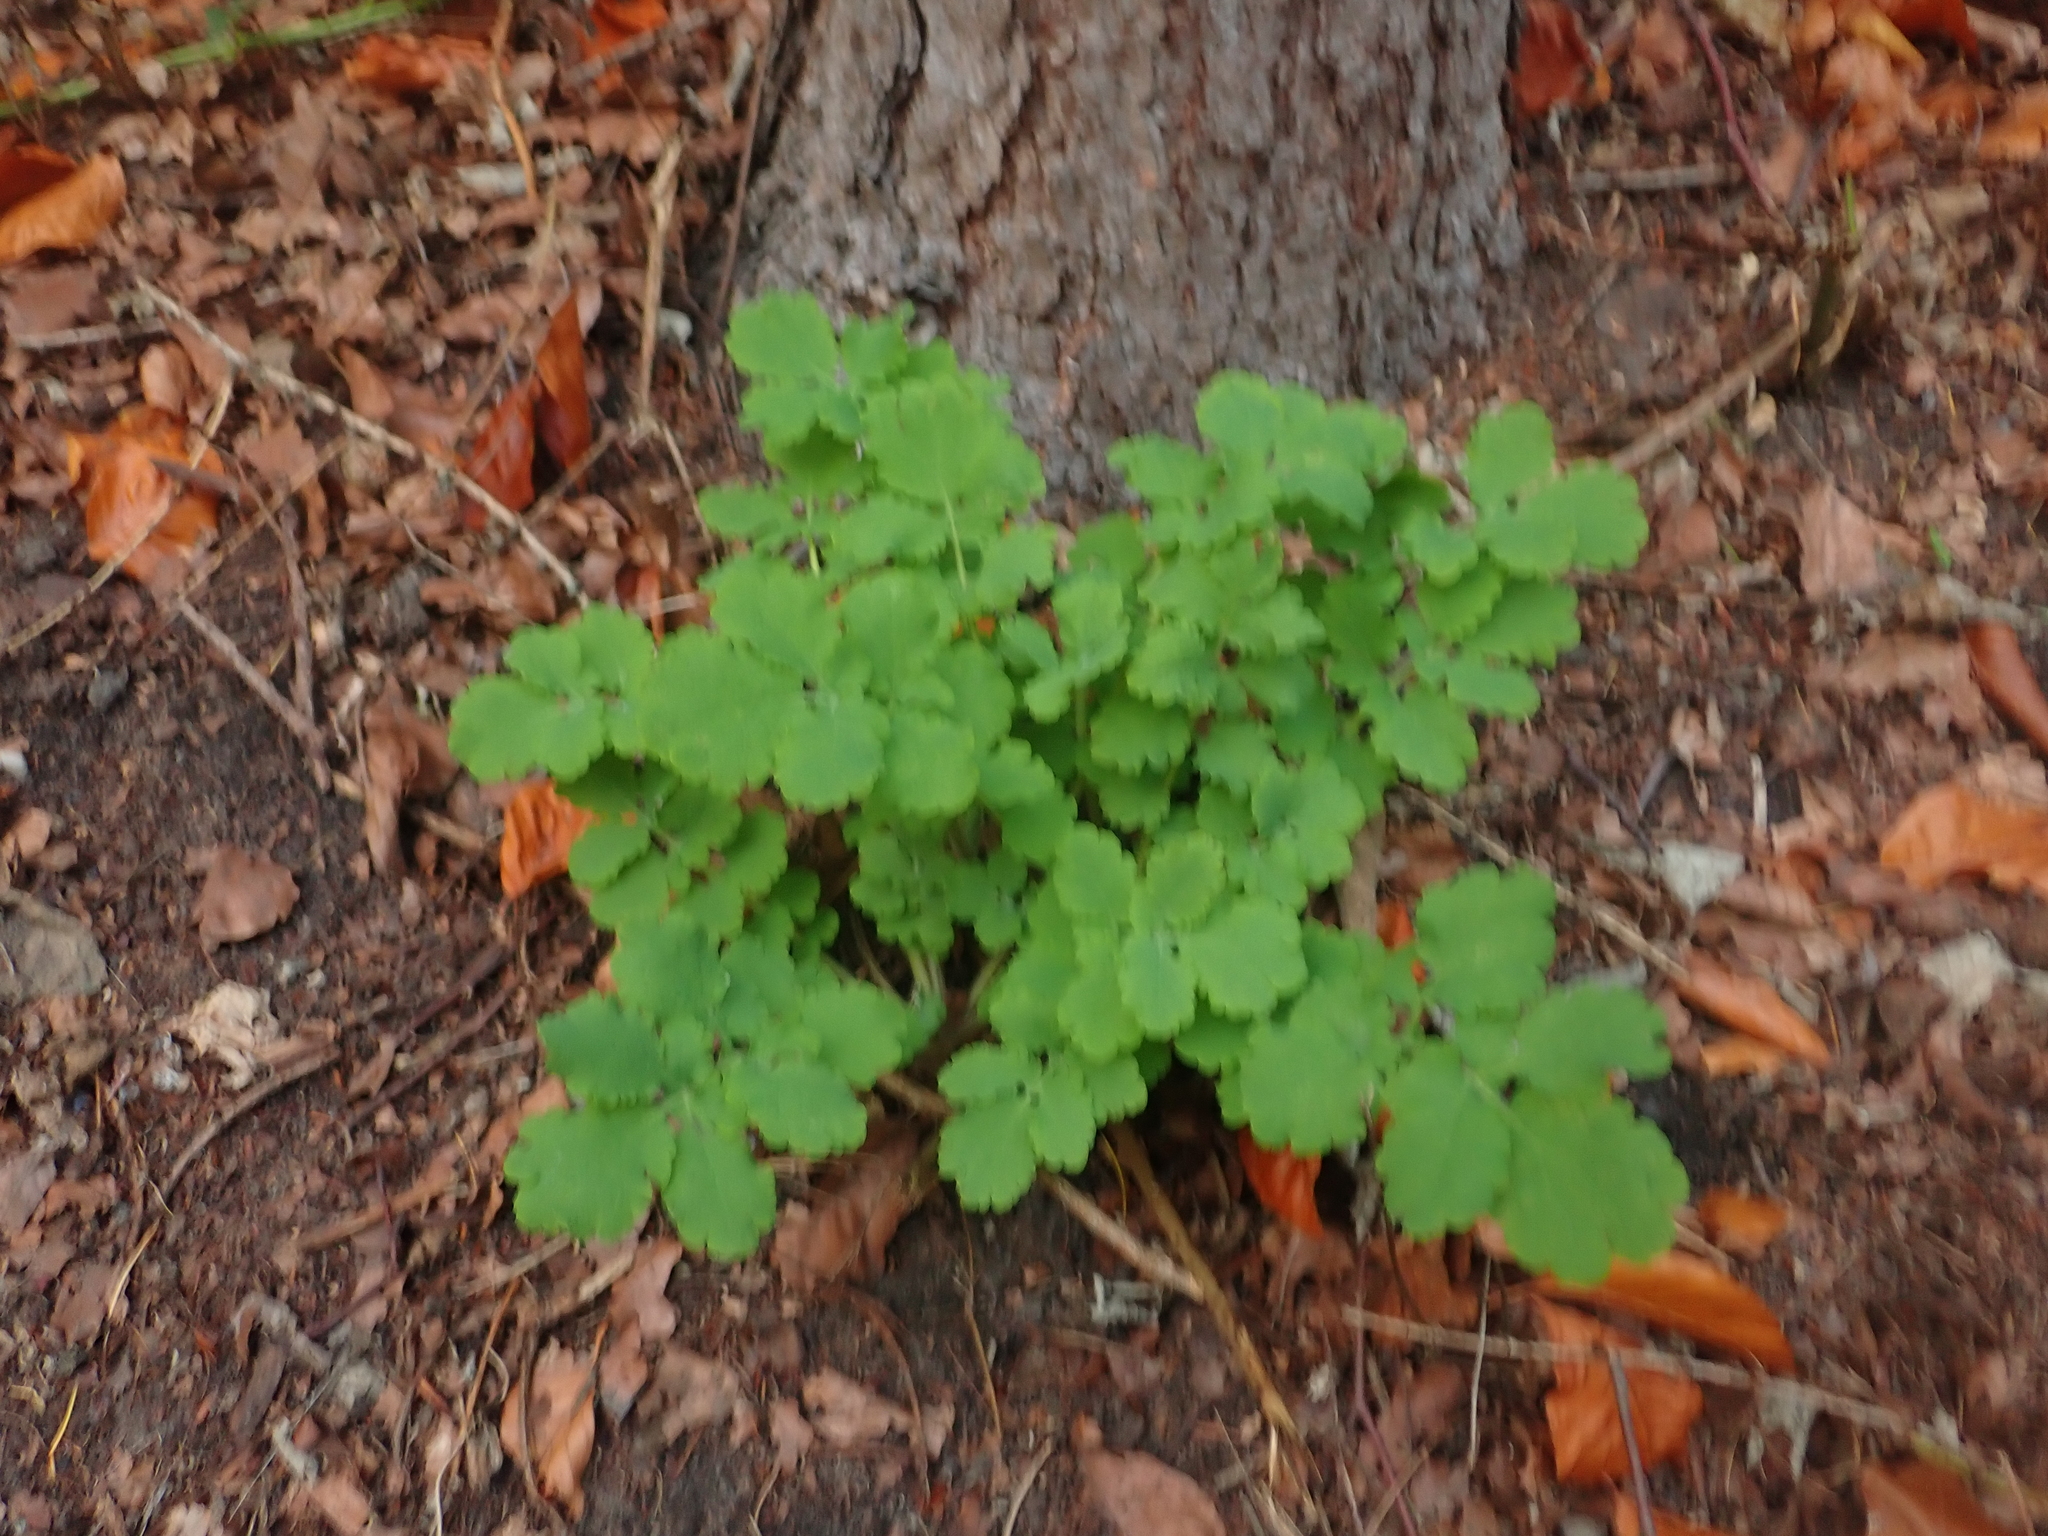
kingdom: Plantae
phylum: Tracheophyta
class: Magnoliopsida
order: Ranunculales
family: Papaveraceae
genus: Chelidonium
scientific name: Chelidonium majus
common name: Greater celandine
